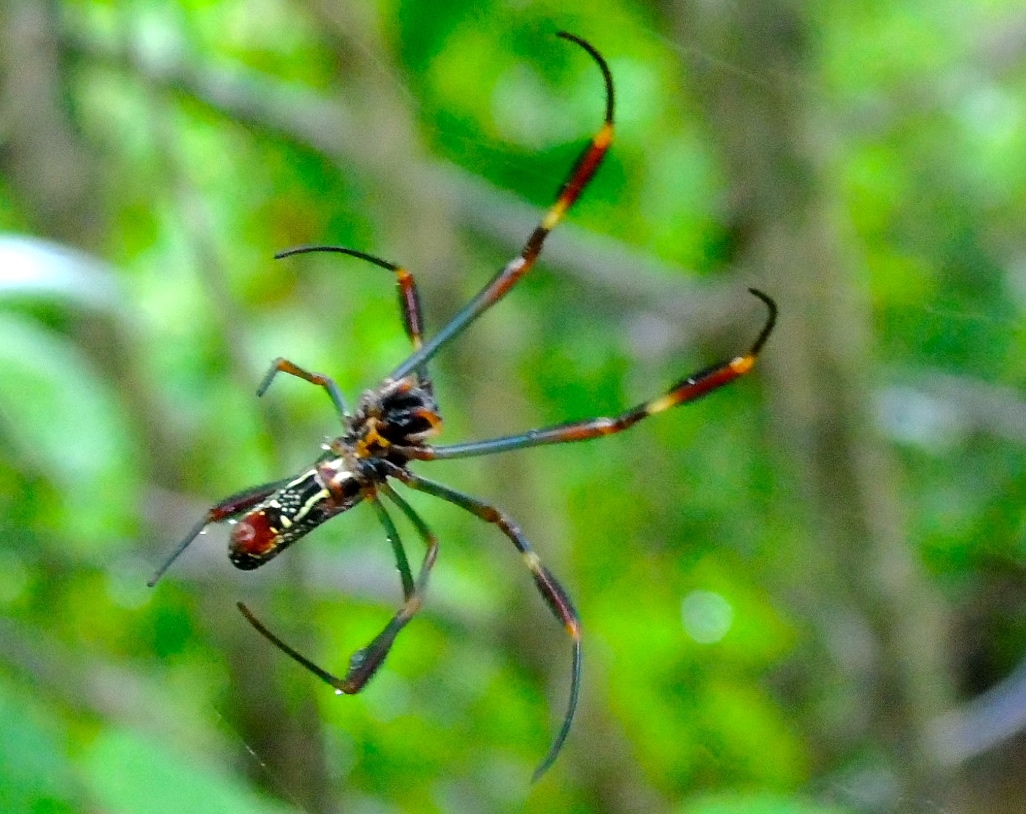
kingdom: Animalia
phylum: Arthropoda
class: Arachnida
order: Araneae
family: Araneidae
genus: Trichonephila
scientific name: Trichonephila clavipes
